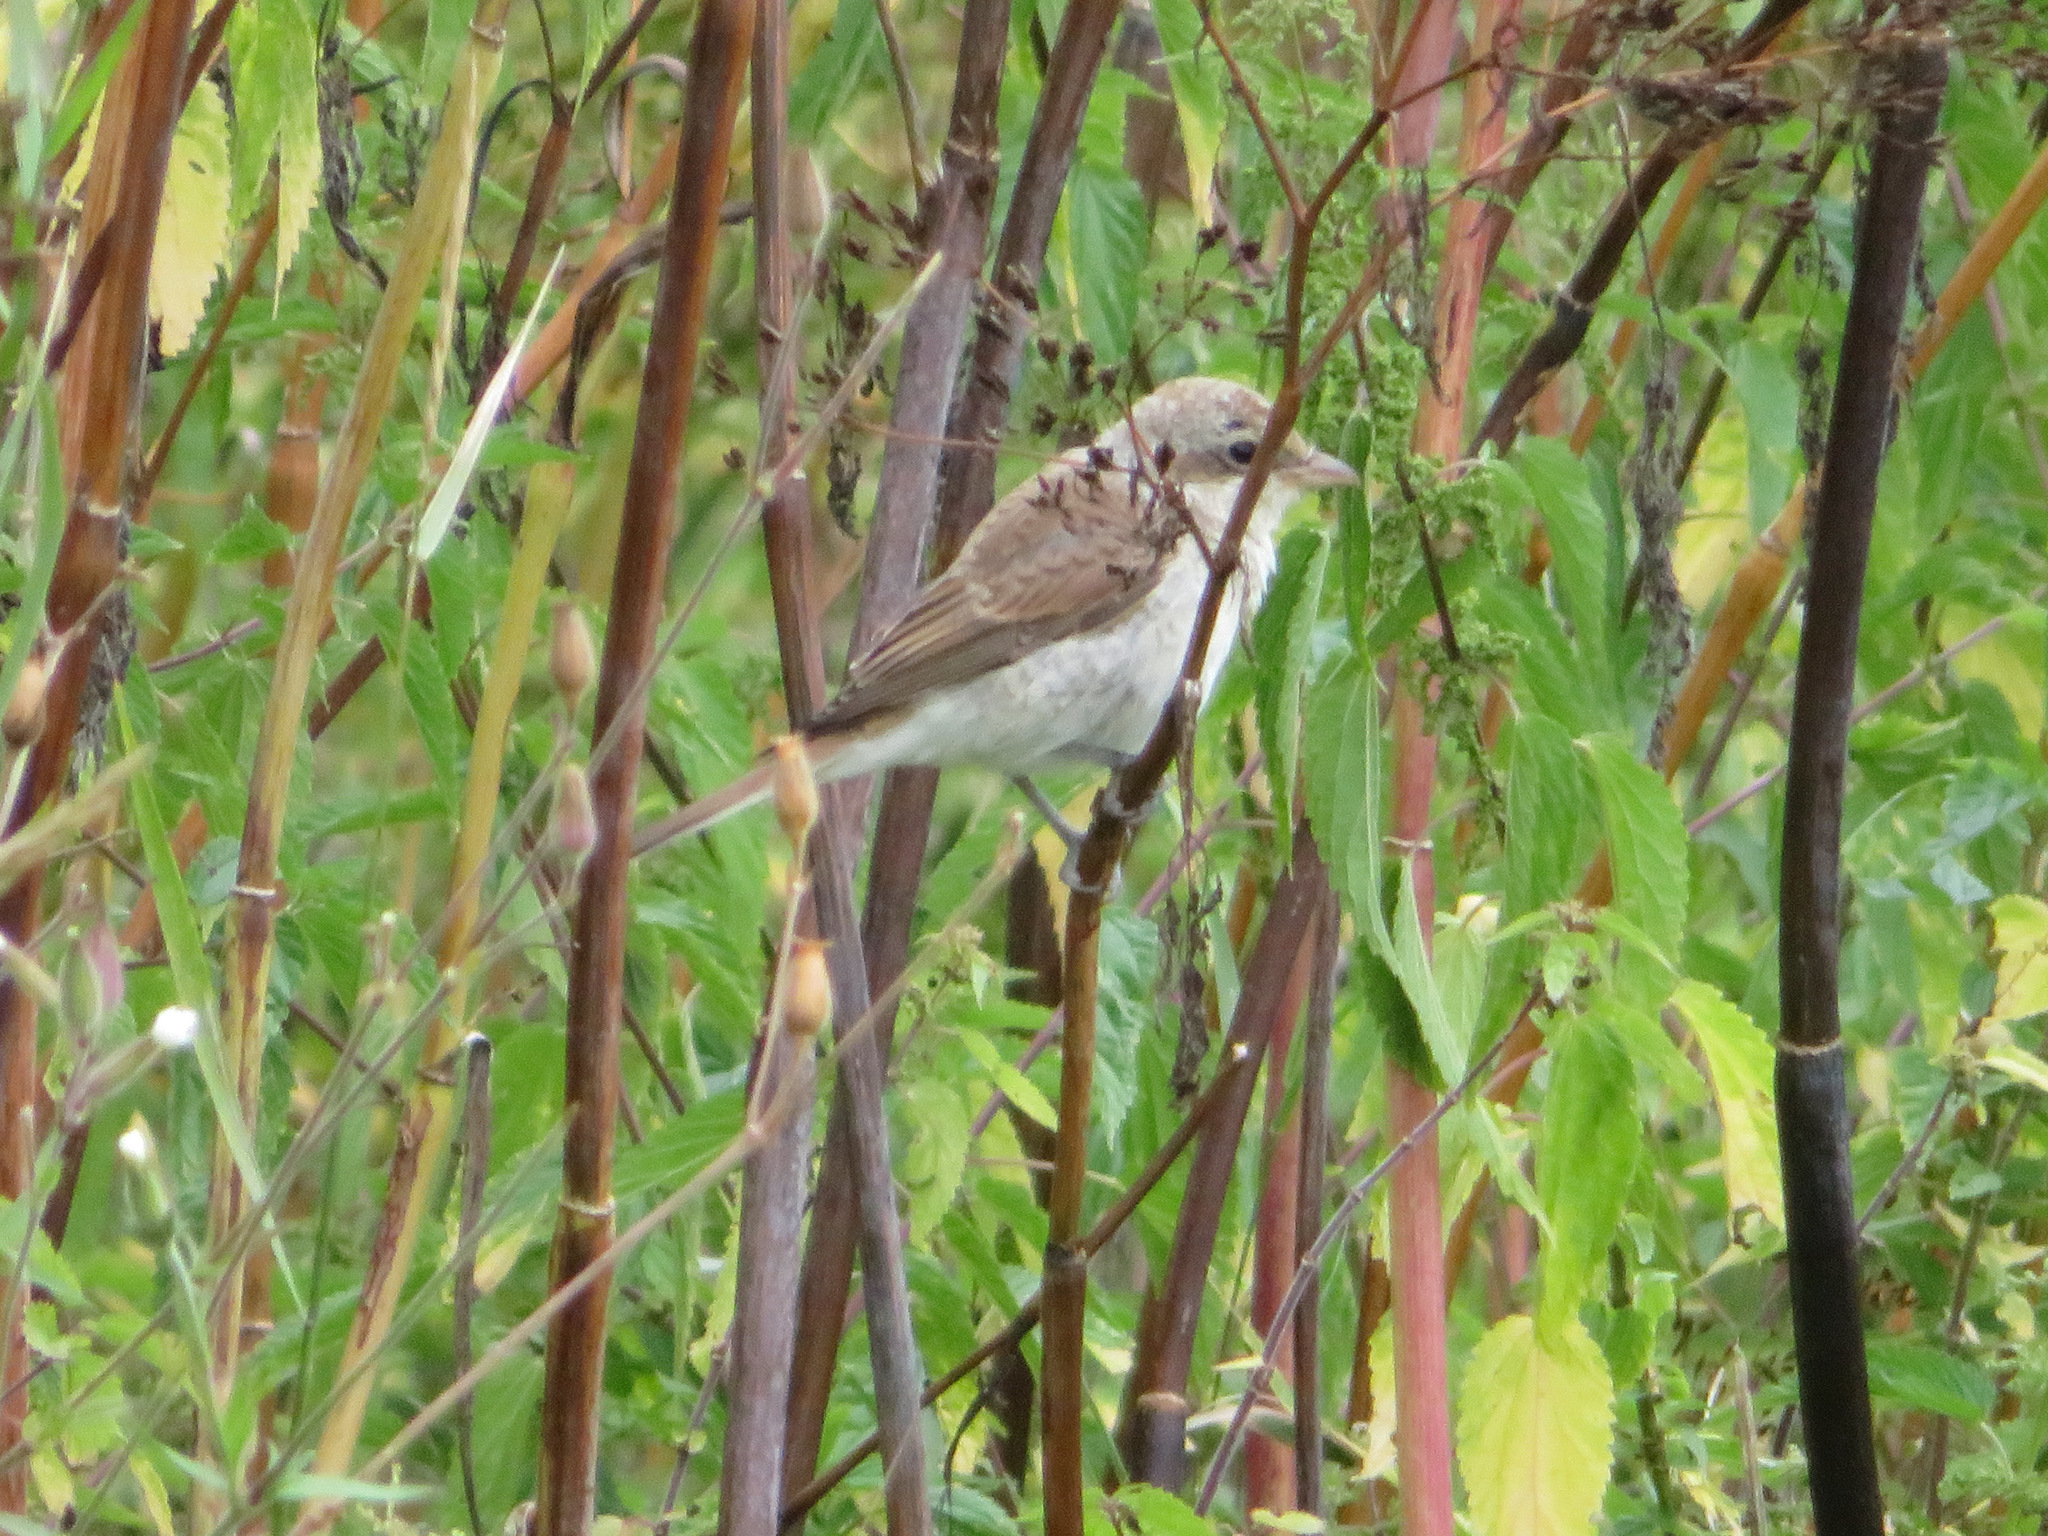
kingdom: Animalia
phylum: Chordata
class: Aves
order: Passeriformes
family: Laniidae
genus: Lanius
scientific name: Lanius collurio
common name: Red-backed shrike
